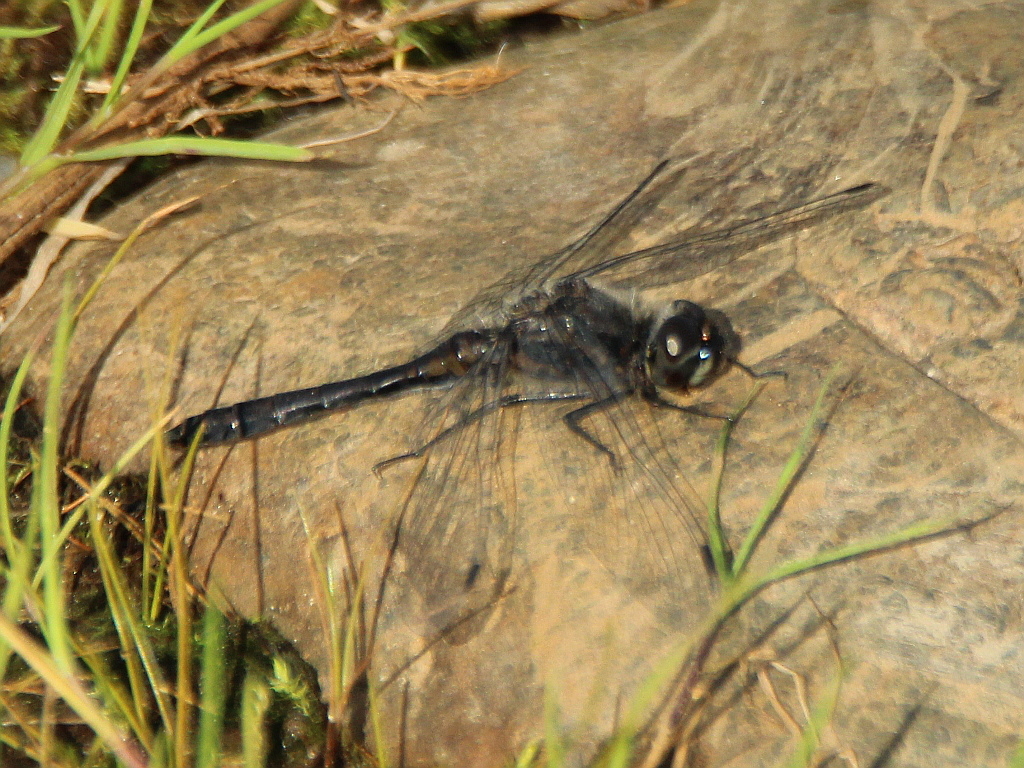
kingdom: Animalia
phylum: Arthropoda
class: Insecta
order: Odonata
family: Libellulidae
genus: Sympetrum
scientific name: Sympetrum danae
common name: Black darter
